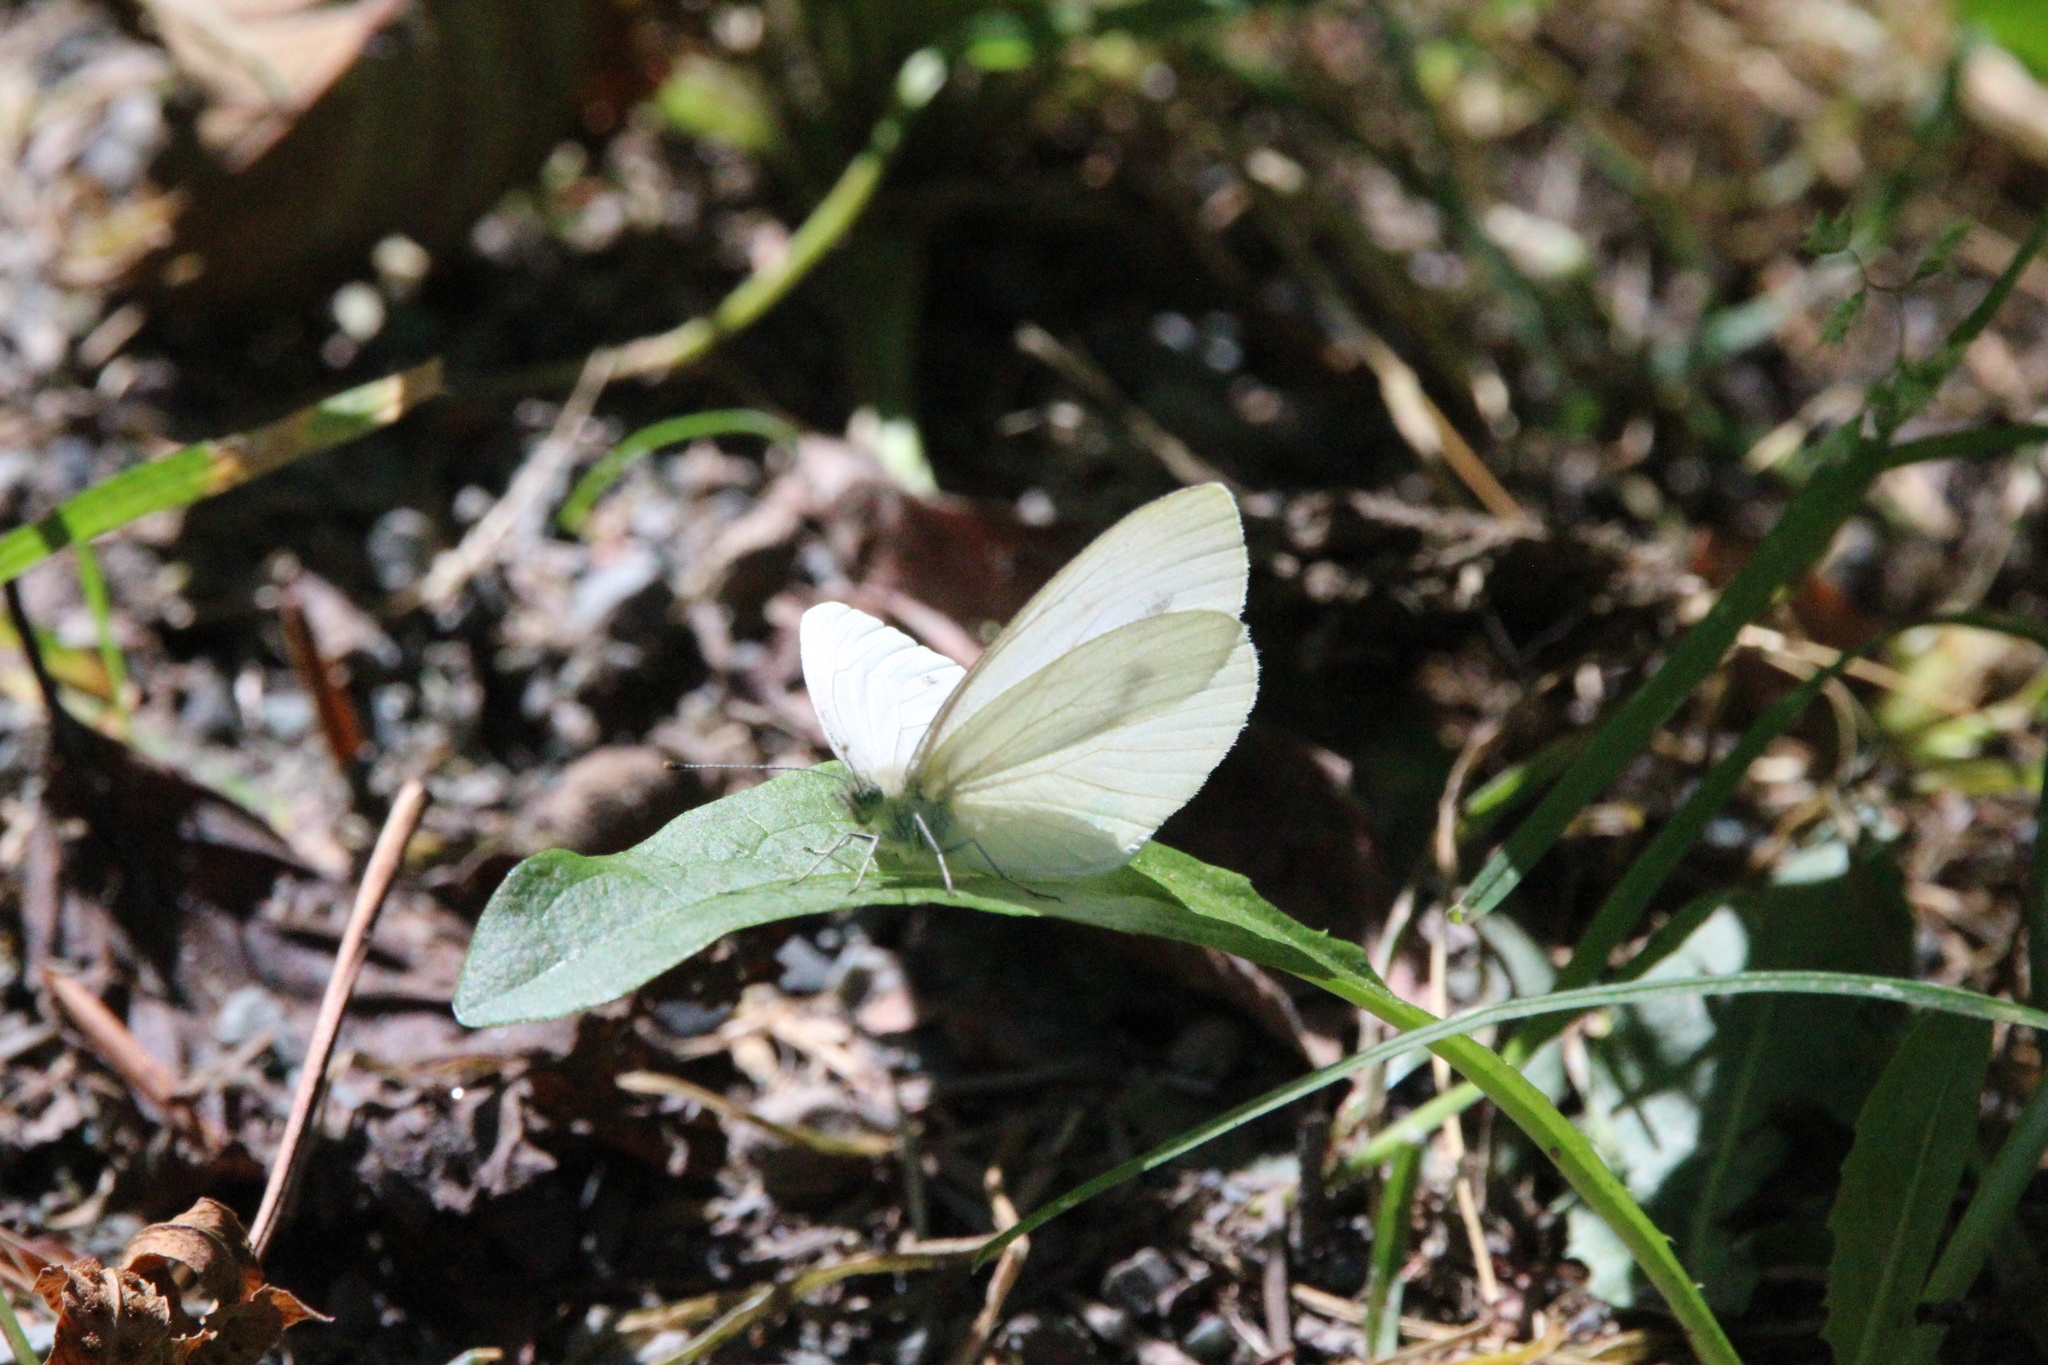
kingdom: Animalia
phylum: Arthropoda
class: Insecta
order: Lepidoptera
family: Pieridae
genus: Pieris
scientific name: Pieris marginalis
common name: Margined white
